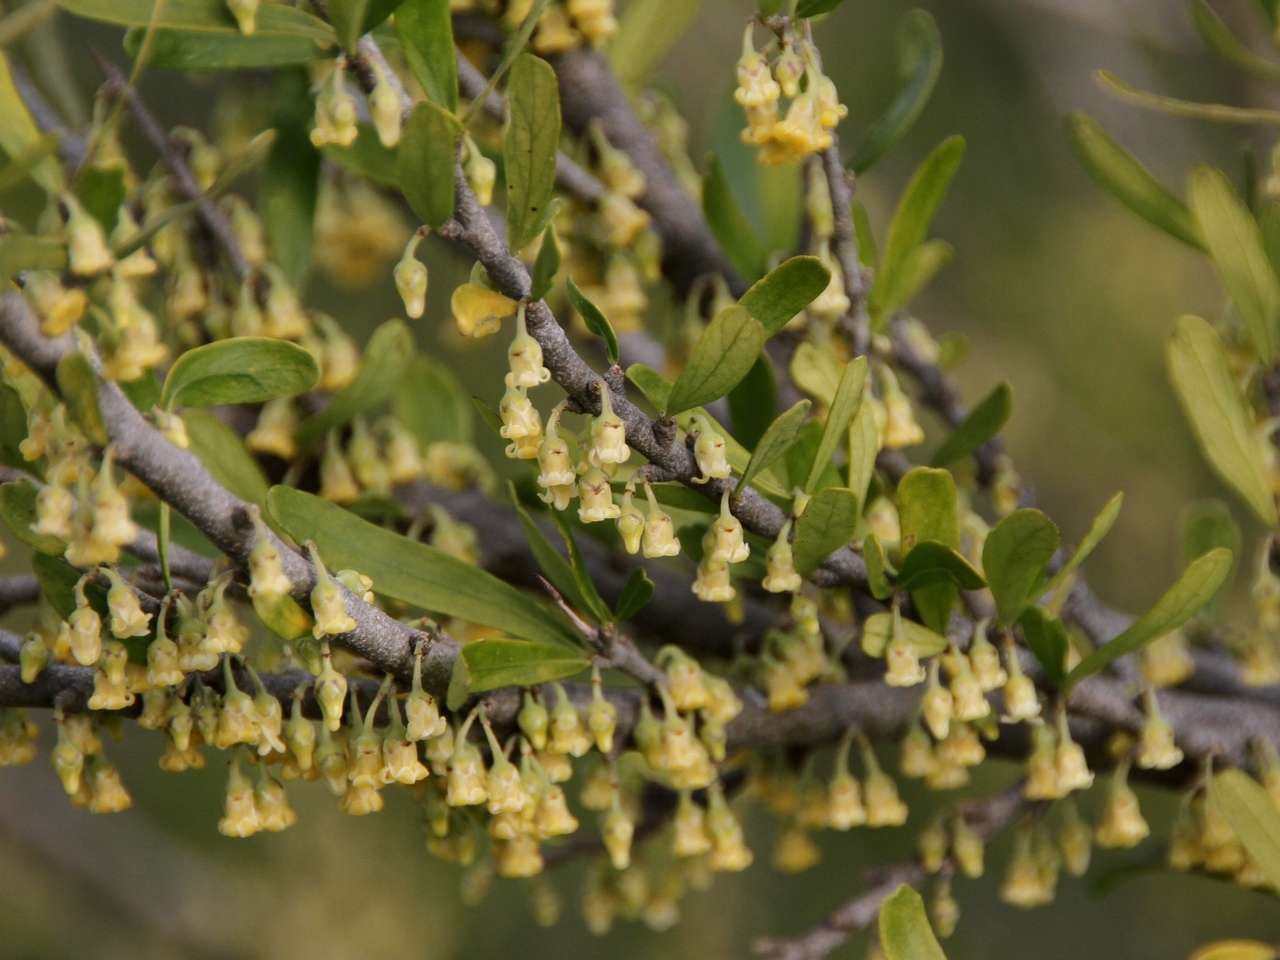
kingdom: Plantae
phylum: Tracheophyta
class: Magnoliopsida
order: Malpighiales
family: Violaceae
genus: Melicytus
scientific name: Melicytus dentatus
